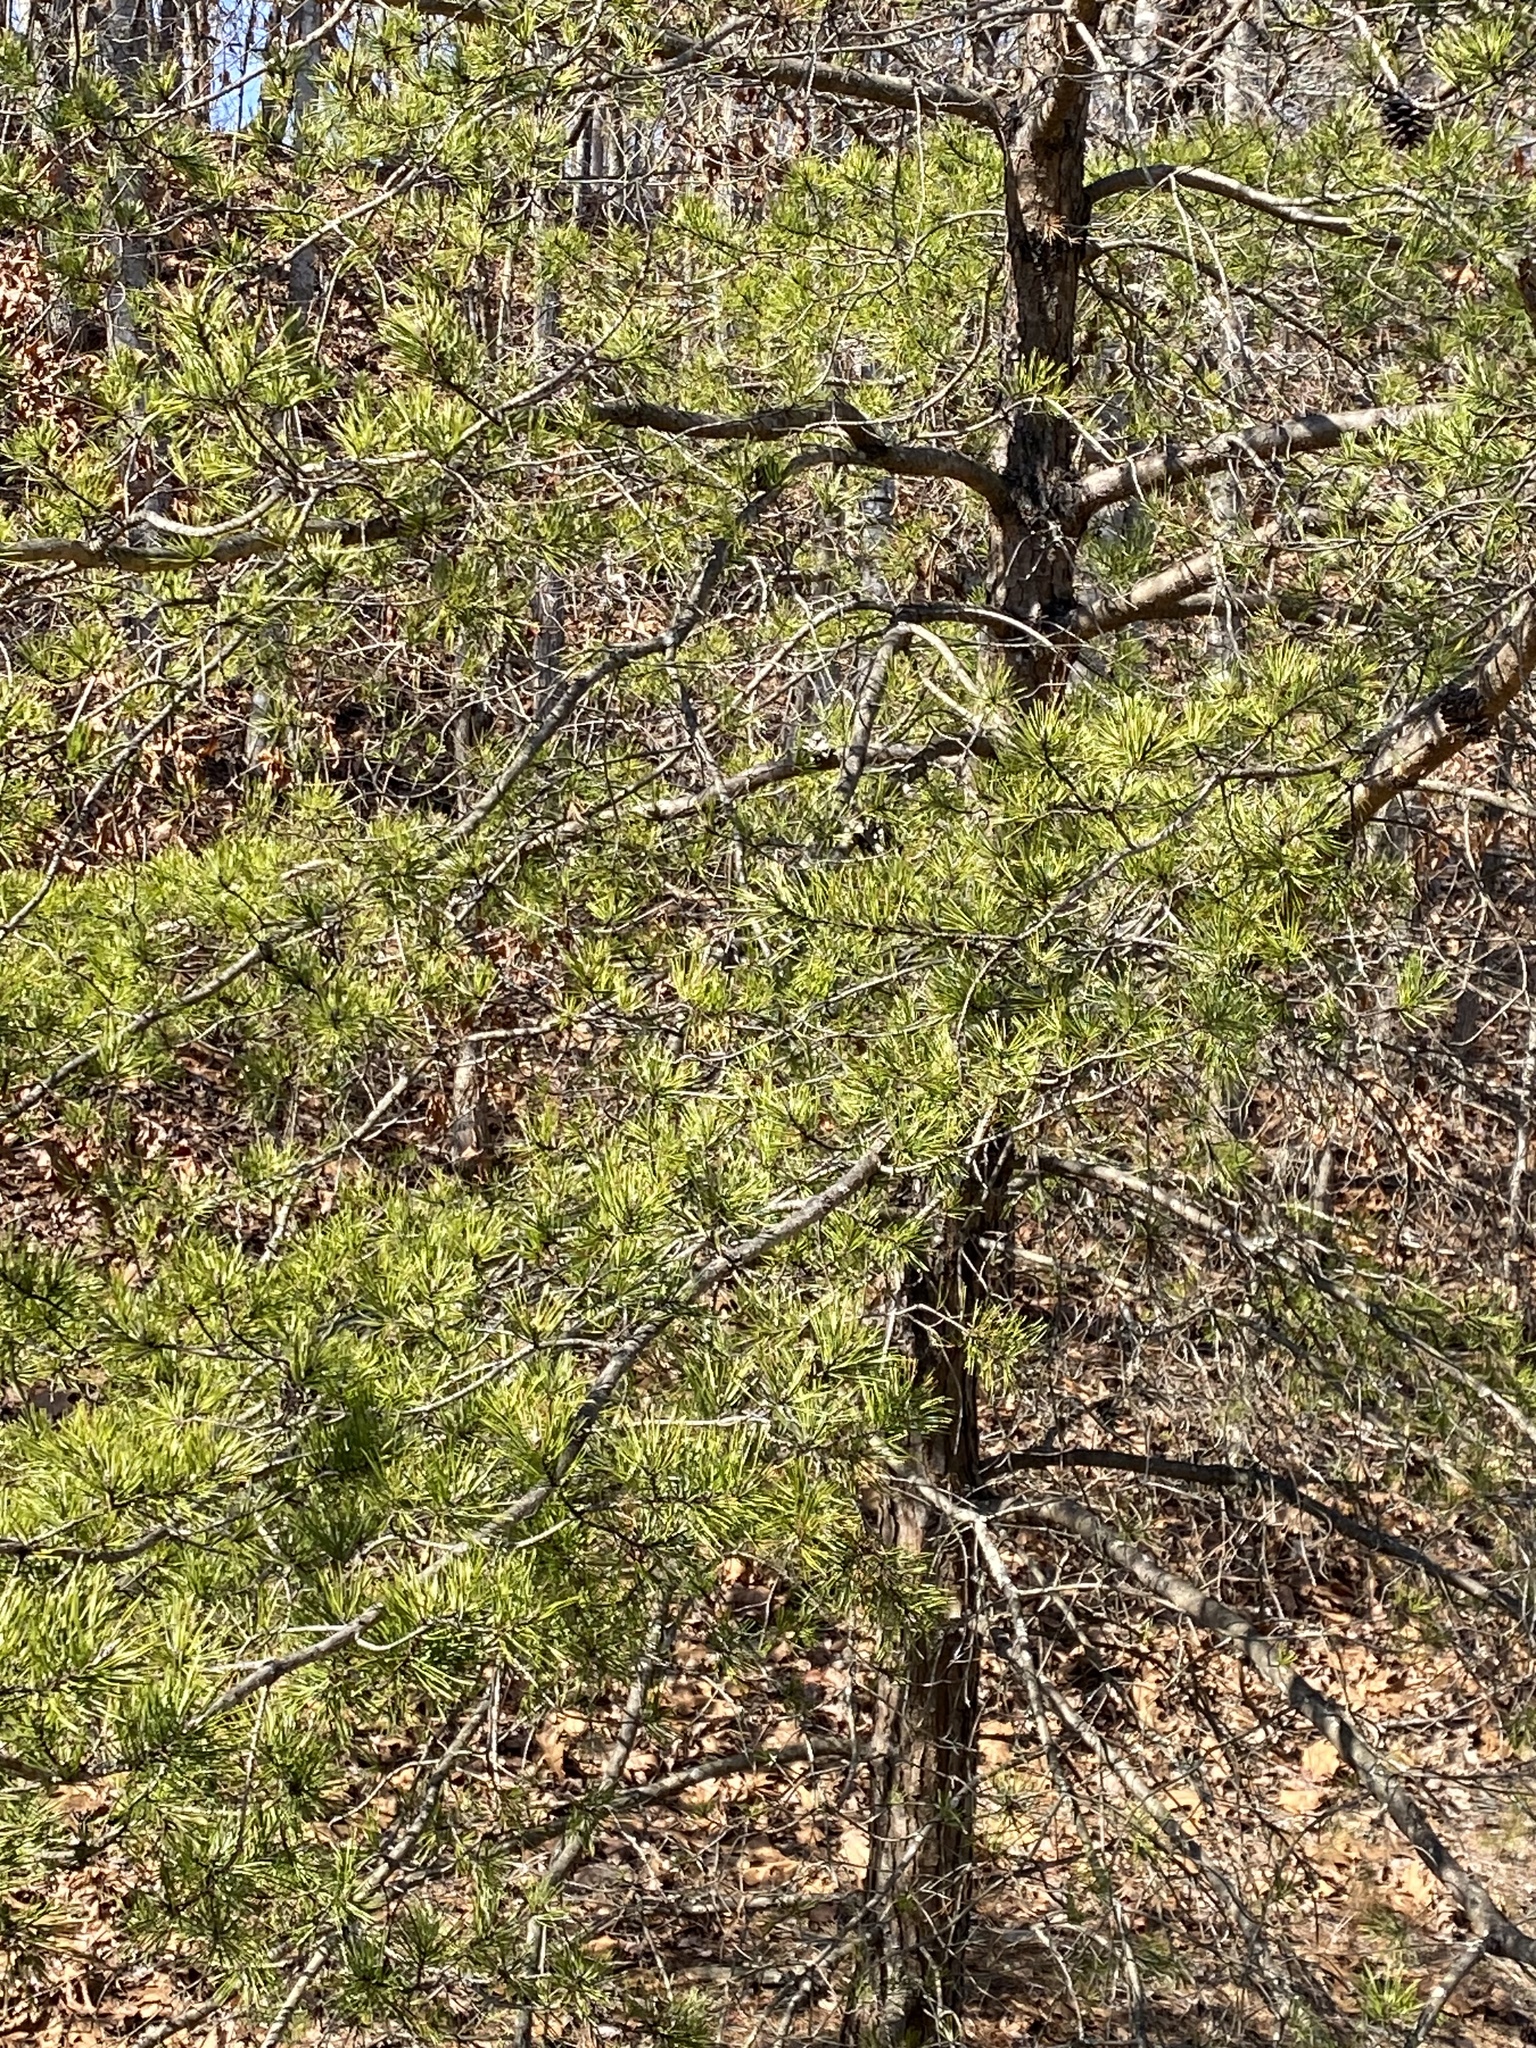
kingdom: Plantae
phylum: Tracheophyta
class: Pinopsida
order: Pinales
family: Pinaceae
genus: Pinus
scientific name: Pinus virginiana
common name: Scrub pine
